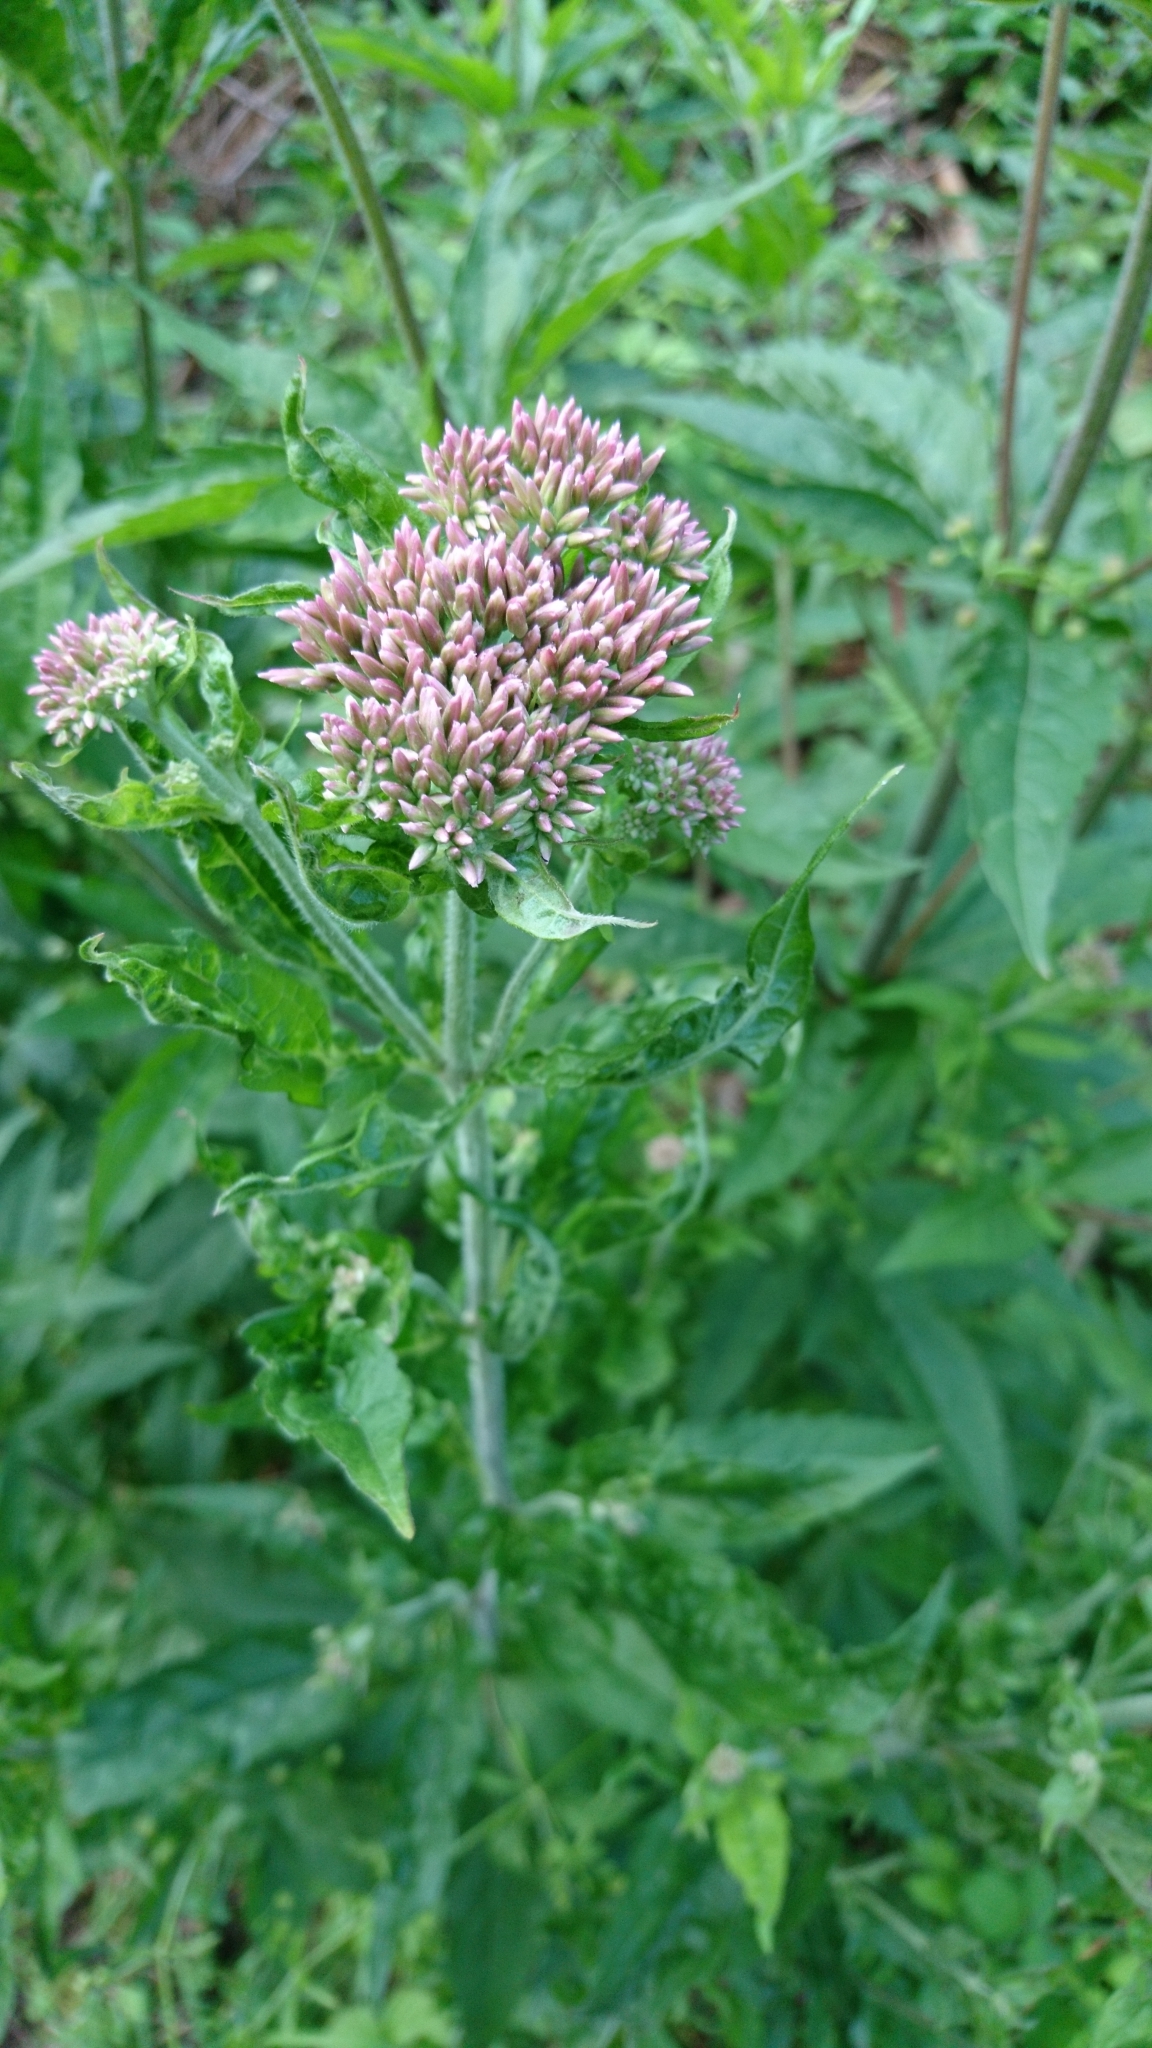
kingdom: Plantae
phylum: Tracheophyta
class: Magnoliopsida
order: Asterales
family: Asteraceae
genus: Eupatorium
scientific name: Eupatorium cannabinum
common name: Hemp-agrimony
